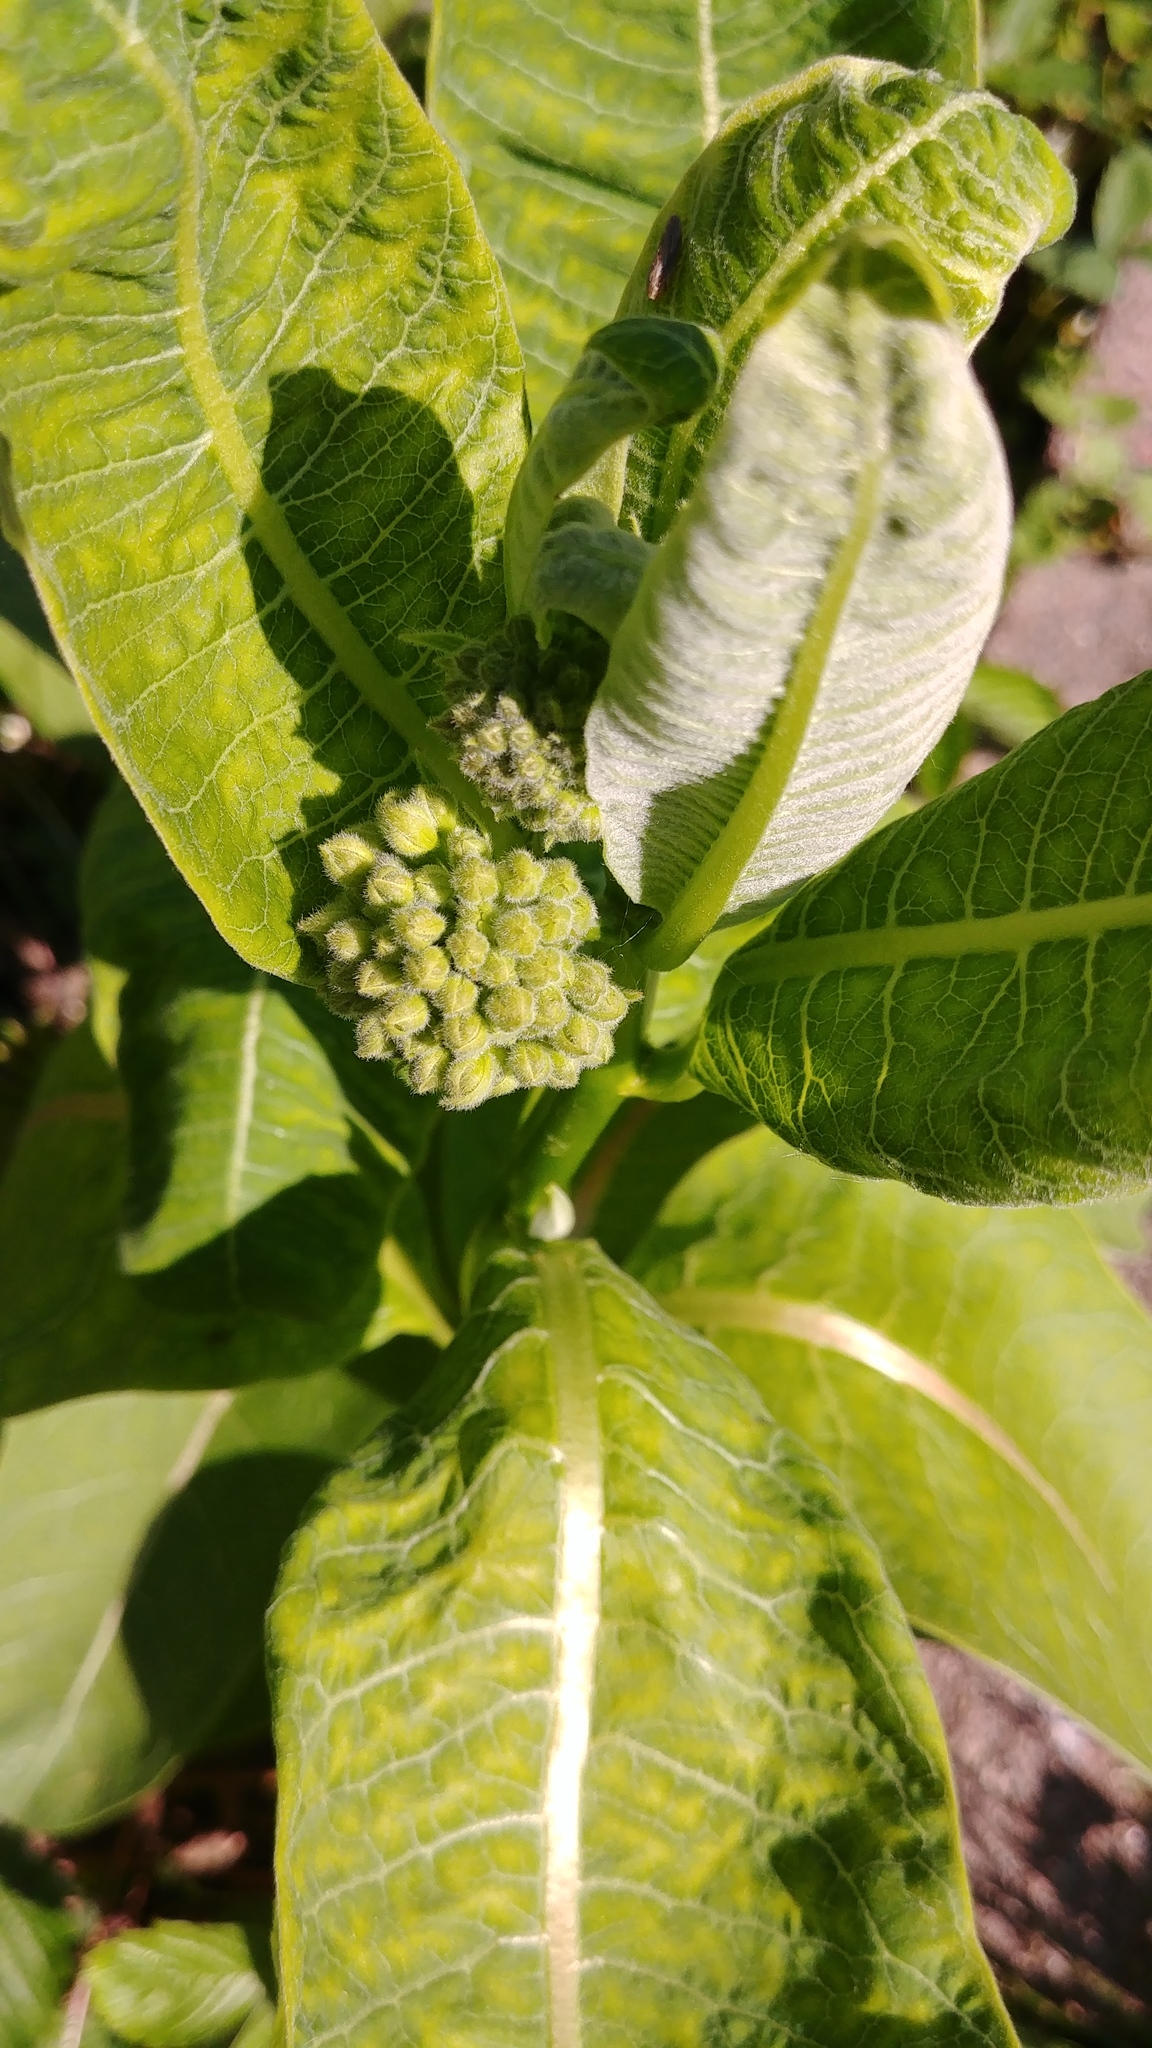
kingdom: Plantae
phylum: Tracheophyta
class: Magnoliopsida
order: Gentianales
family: Apocynaceae
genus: Asclepias
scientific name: Asclepias syriaca
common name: Common milkweed
